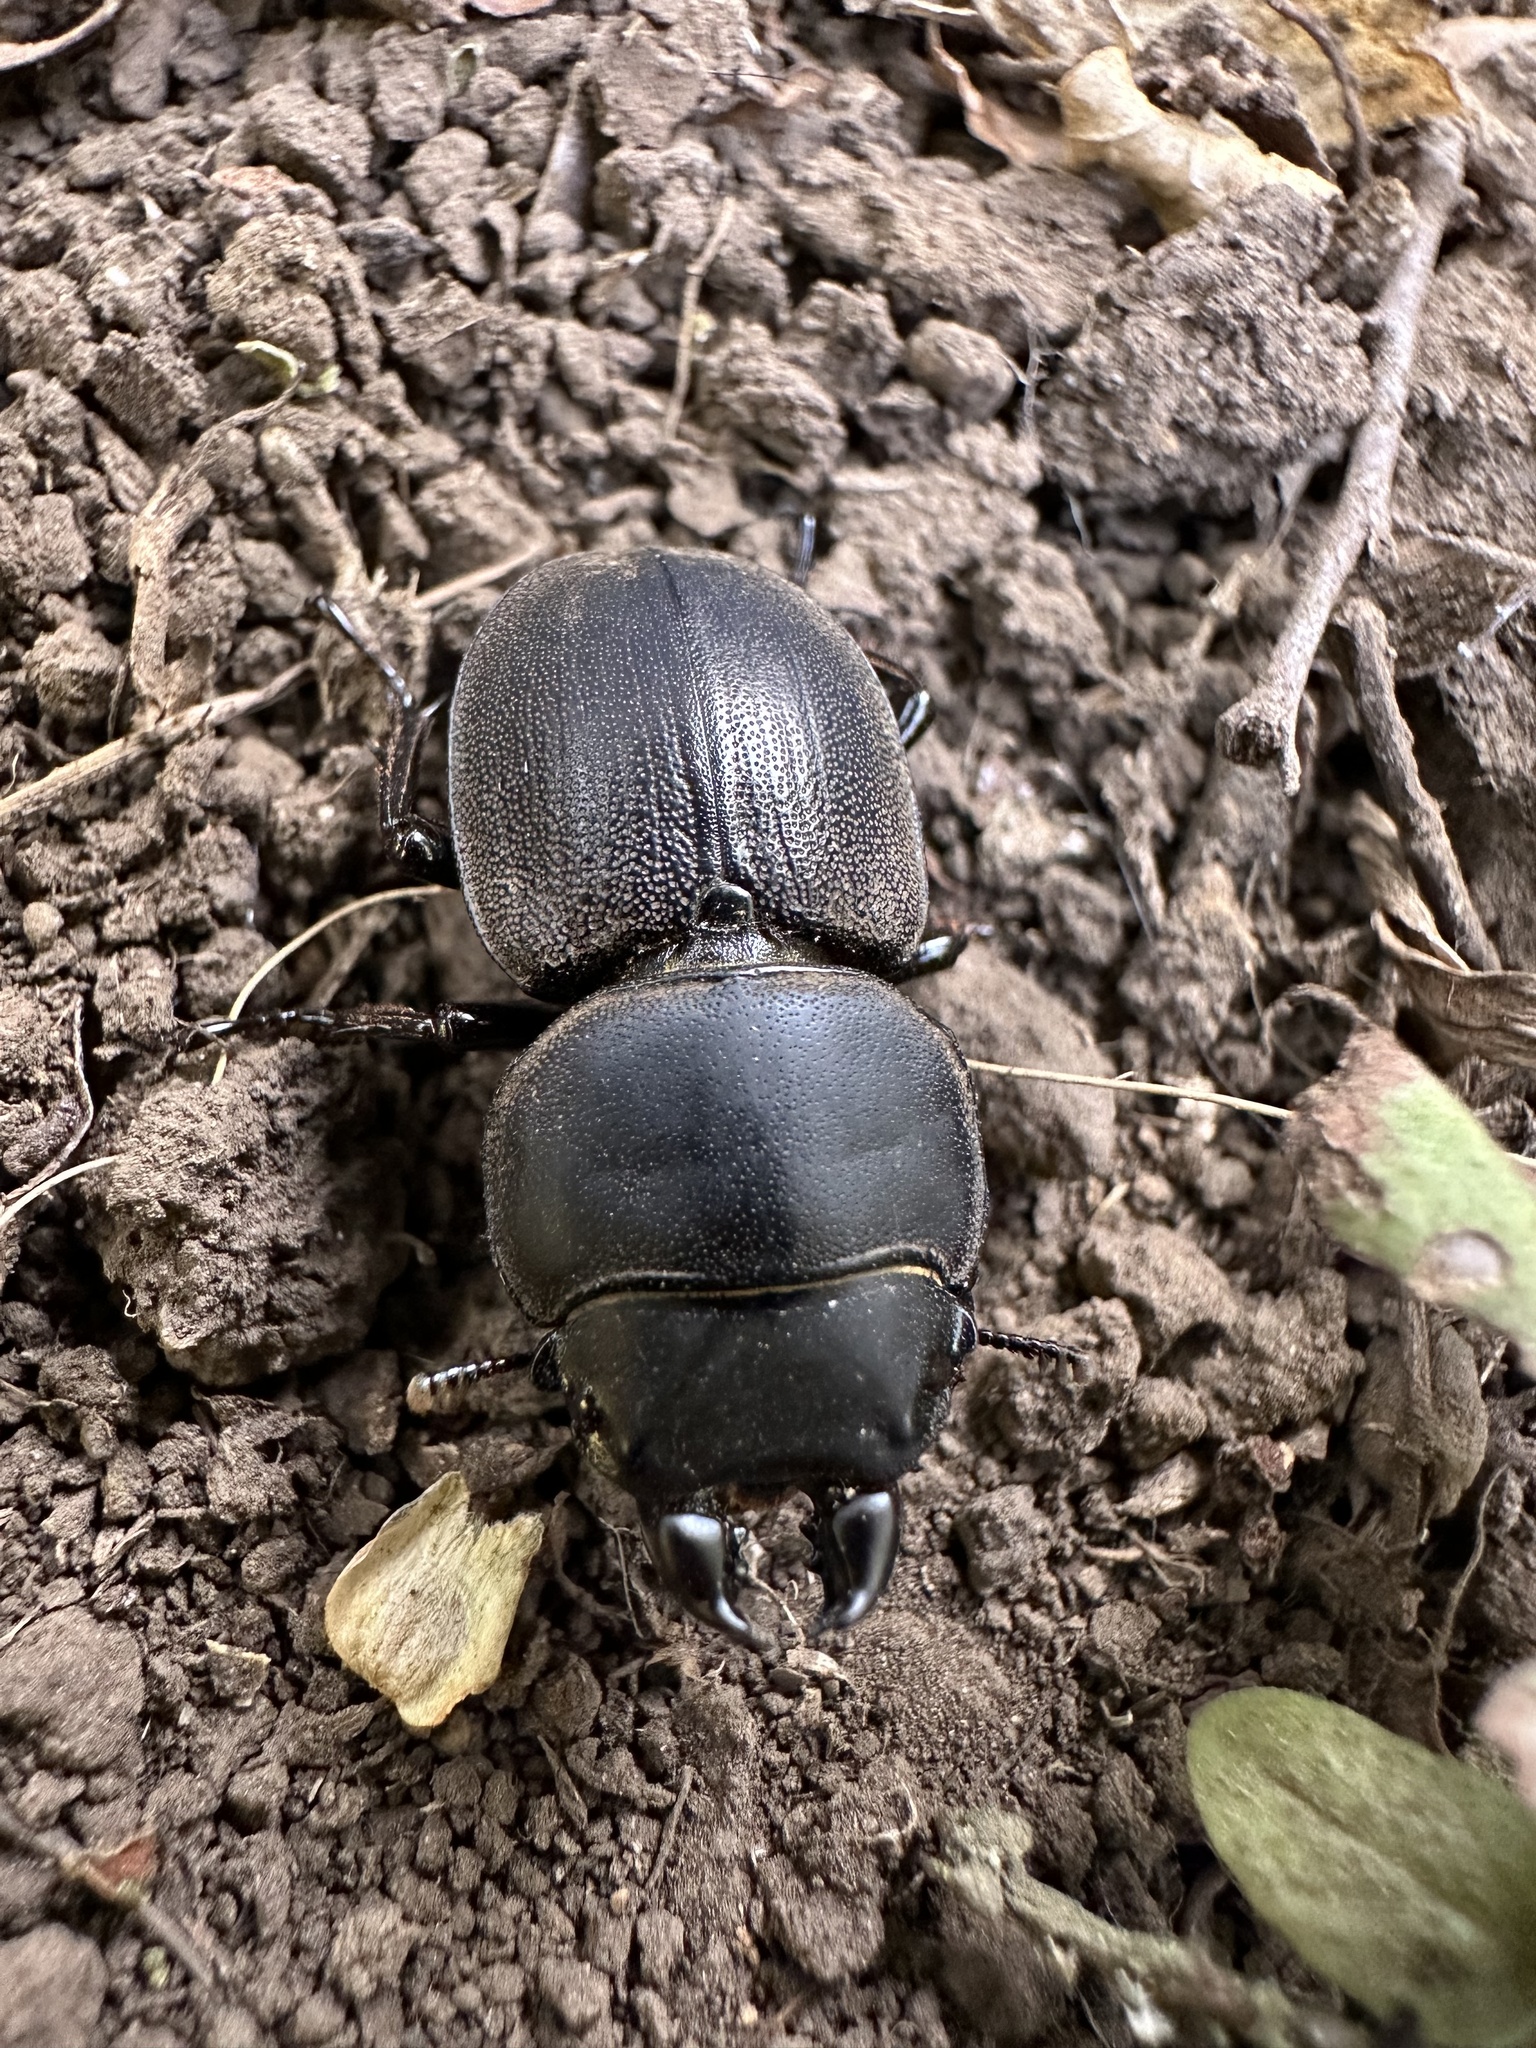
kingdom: Animalia
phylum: Arthropoda
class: Insecta
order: Coleoptera
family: Lucanidae
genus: Apterodorcus
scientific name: Apterodorcus bacchus
